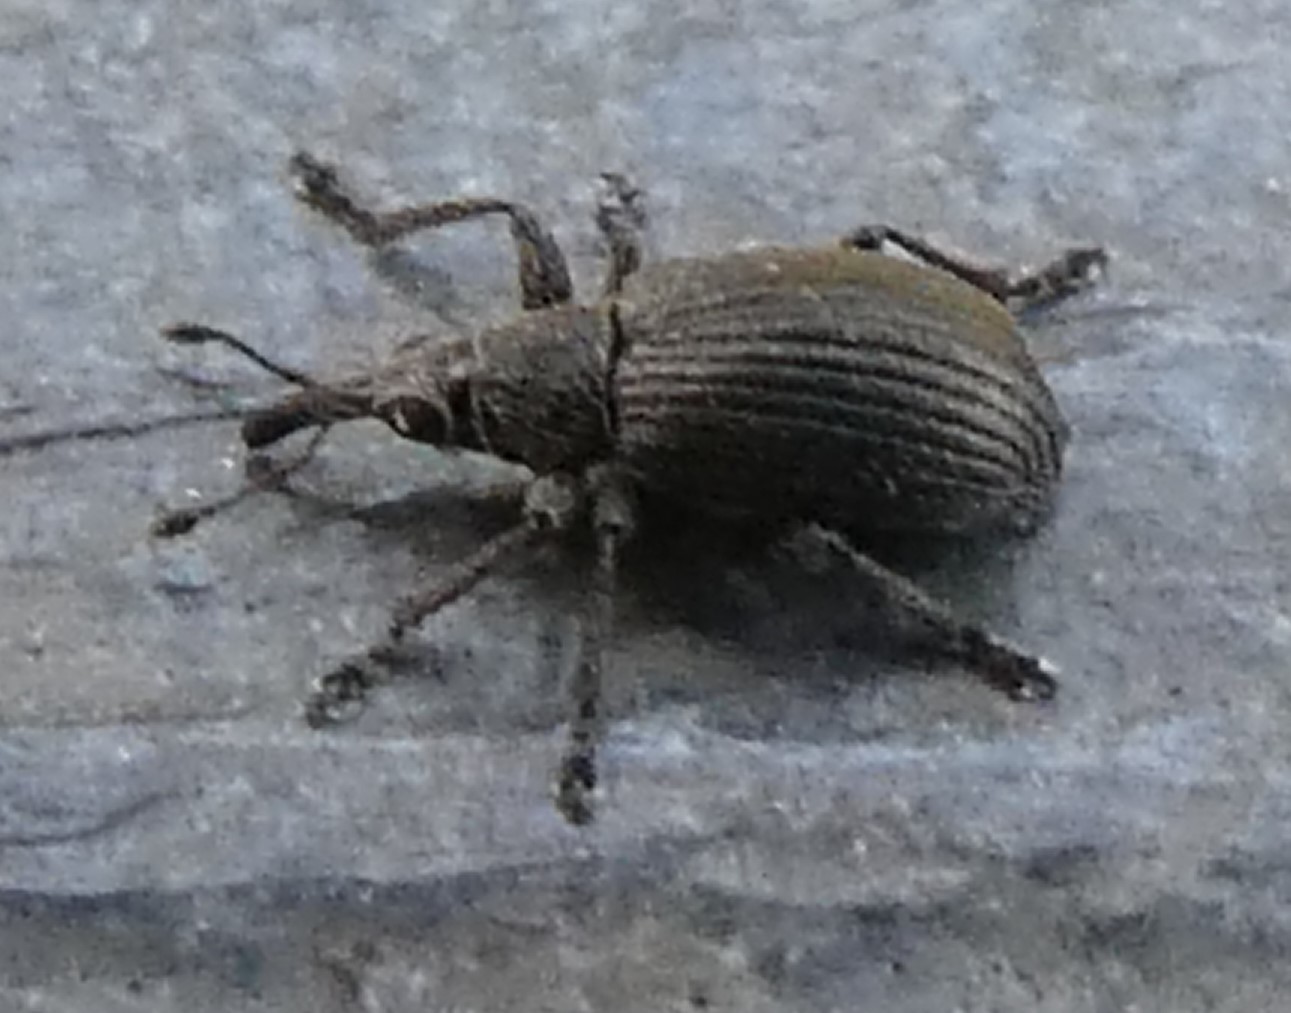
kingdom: Animalia
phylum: Arthropoda
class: Insecta
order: Coleoptera
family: Brentidae
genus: Betulapion
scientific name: Betulapion simile
